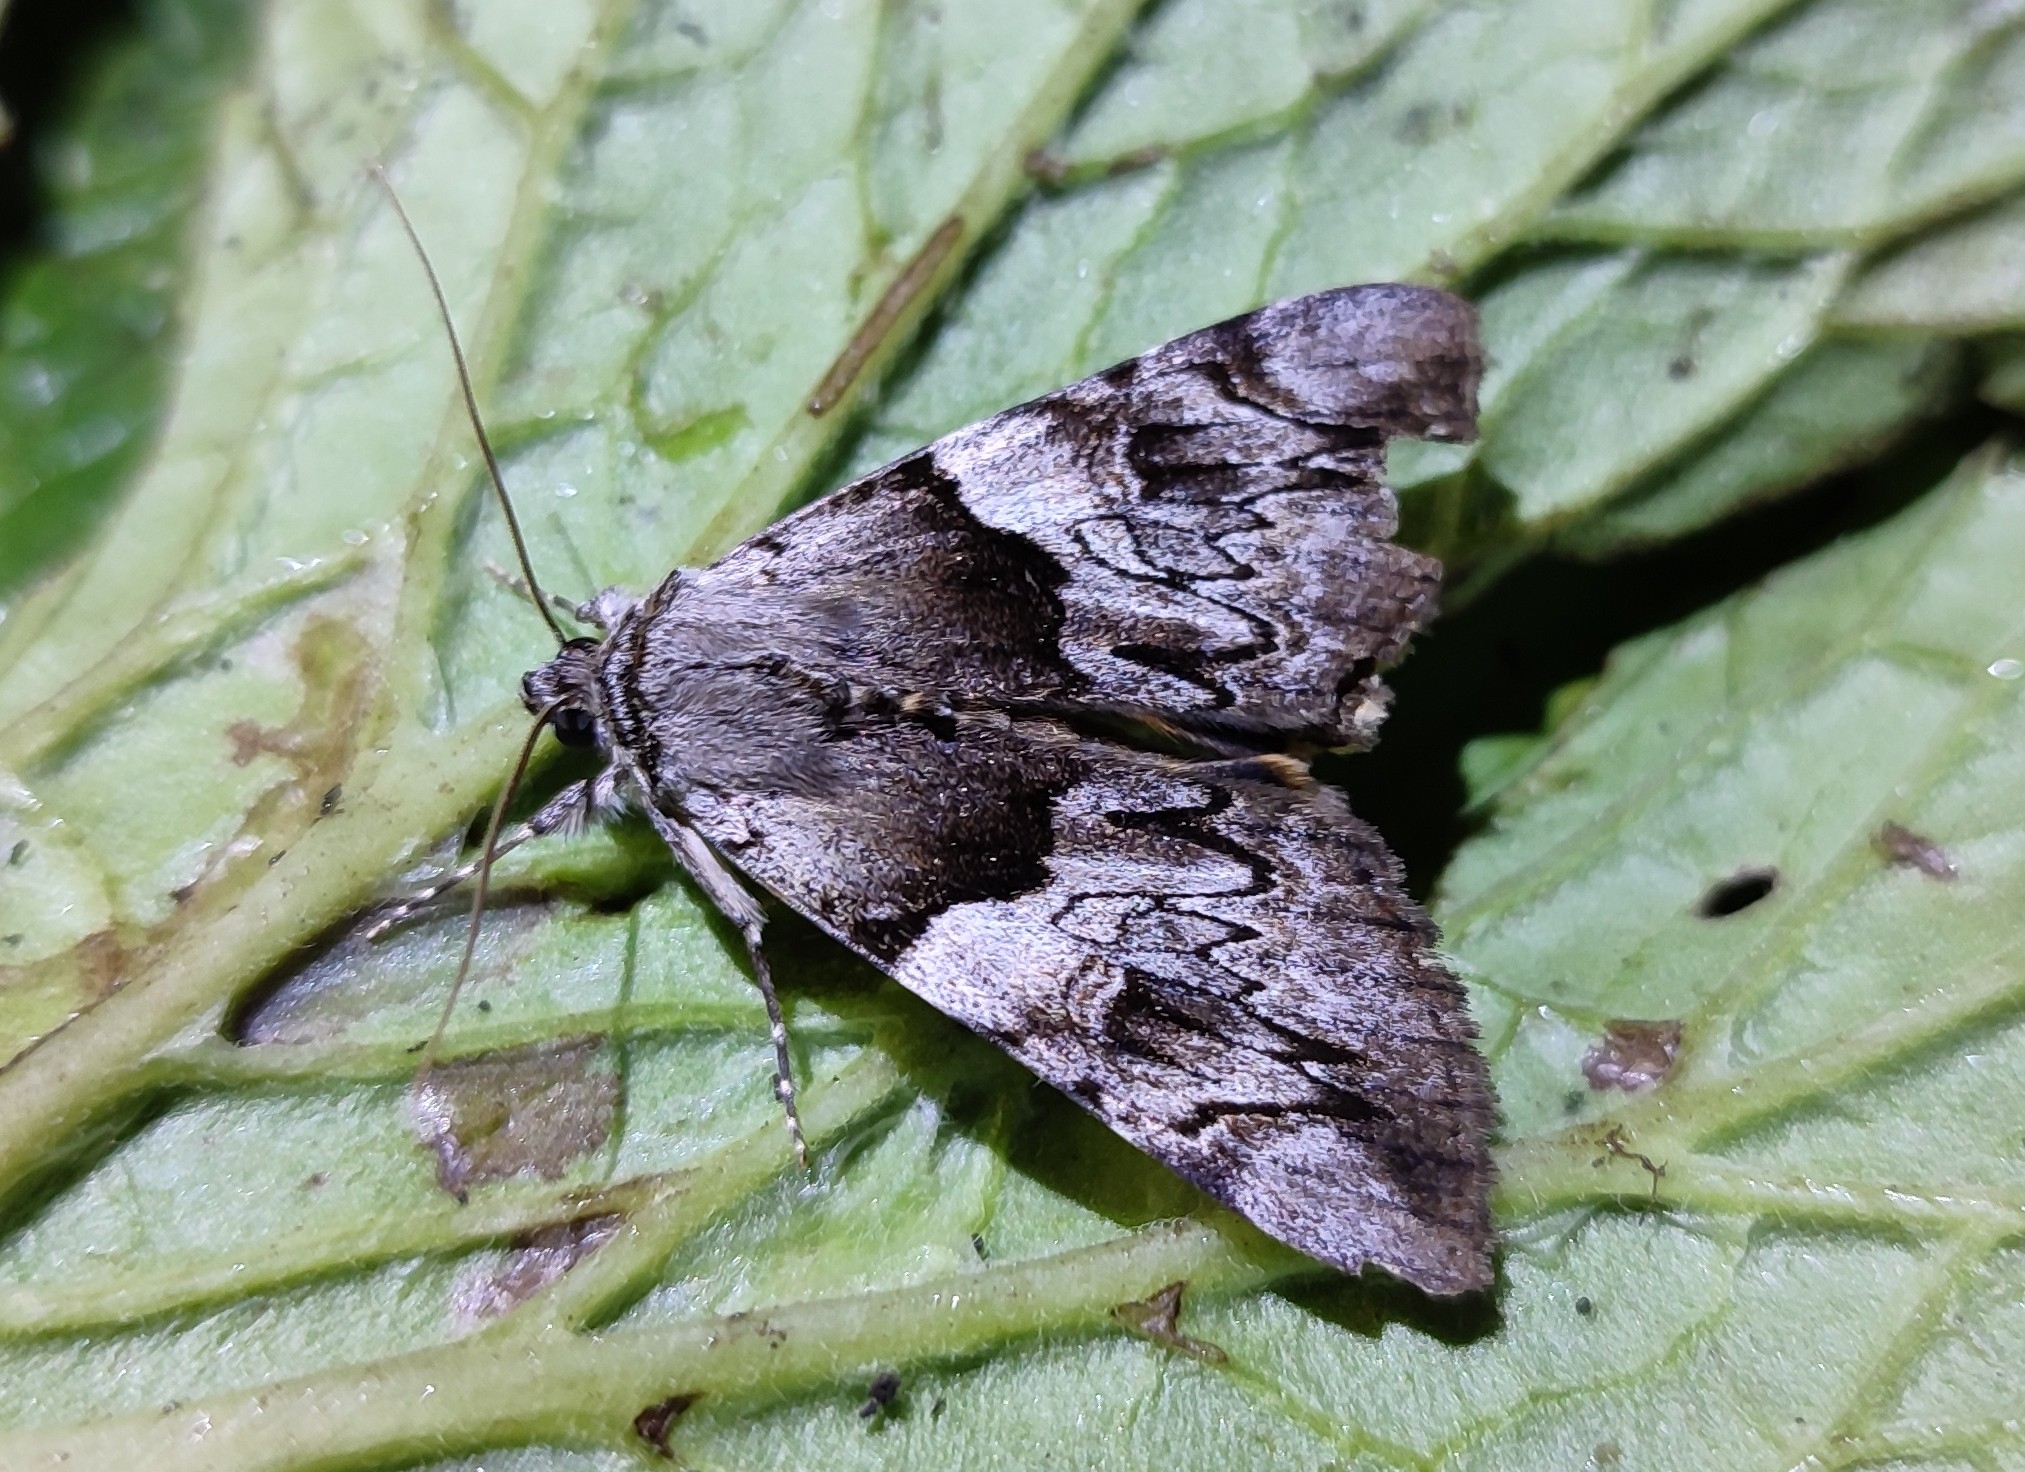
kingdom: Animalia
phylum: Arthropoda
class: Insecta
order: Lepidoptera
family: Erebidae
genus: Catocala
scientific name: Catocala fulminea
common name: Yellow bands underwing
